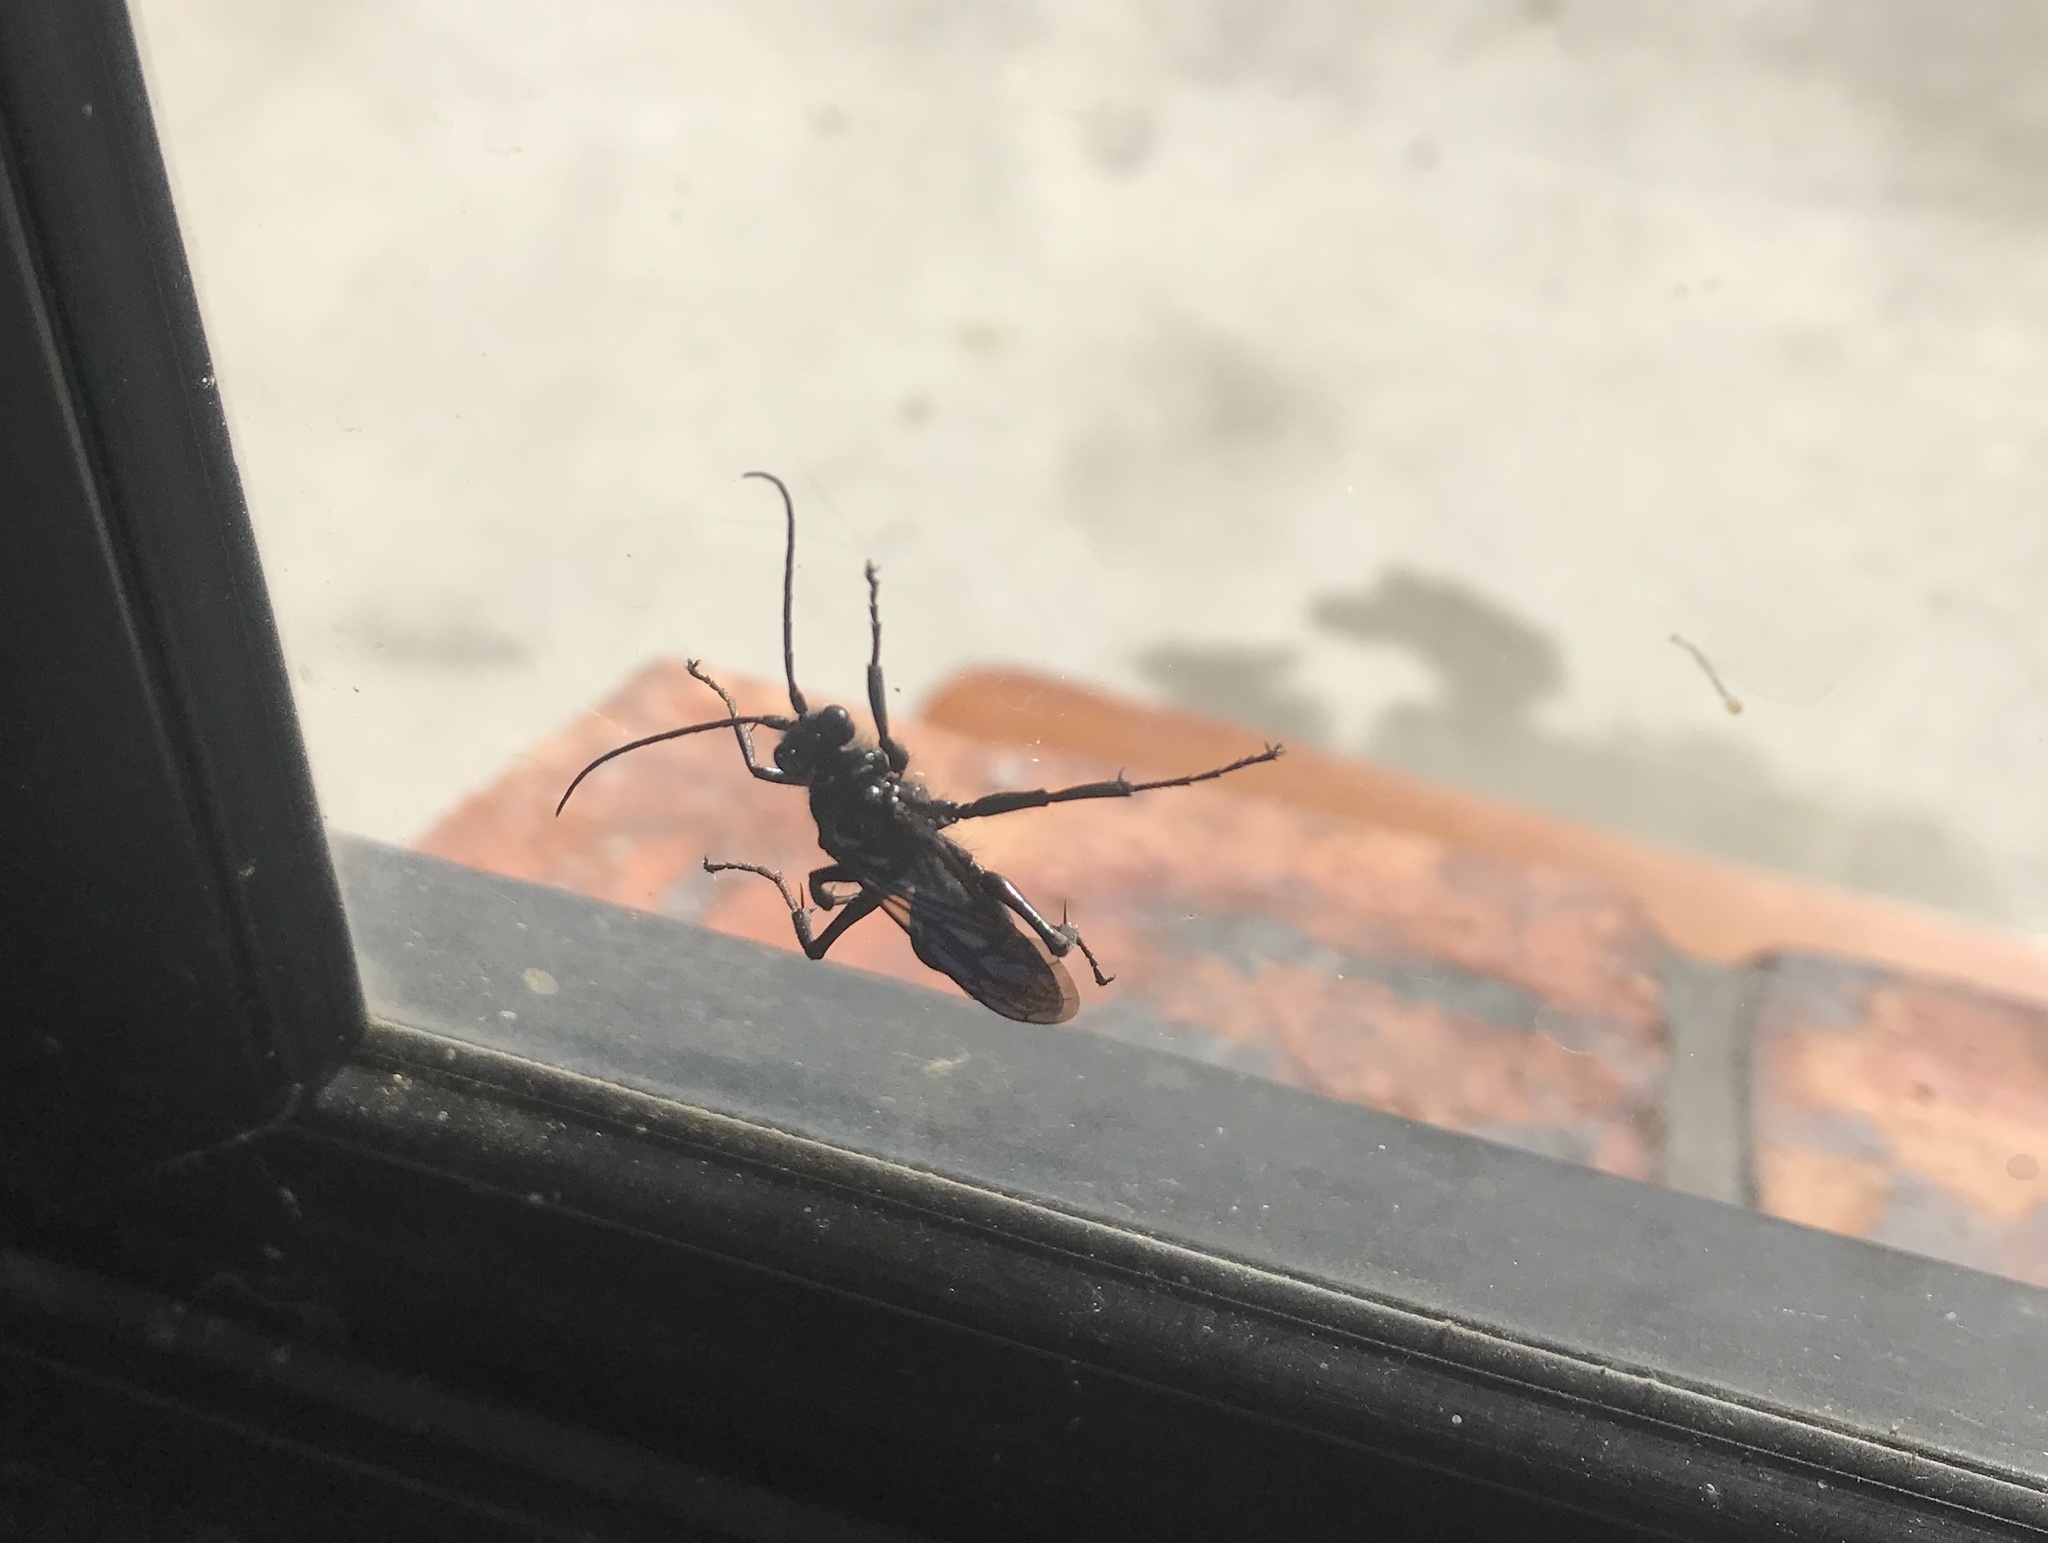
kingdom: Animalia
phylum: Arthropoda
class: Insecta
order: Hymenoptera
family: Pompilidae
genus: Priocnemis
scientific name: Priocnemis monachus
